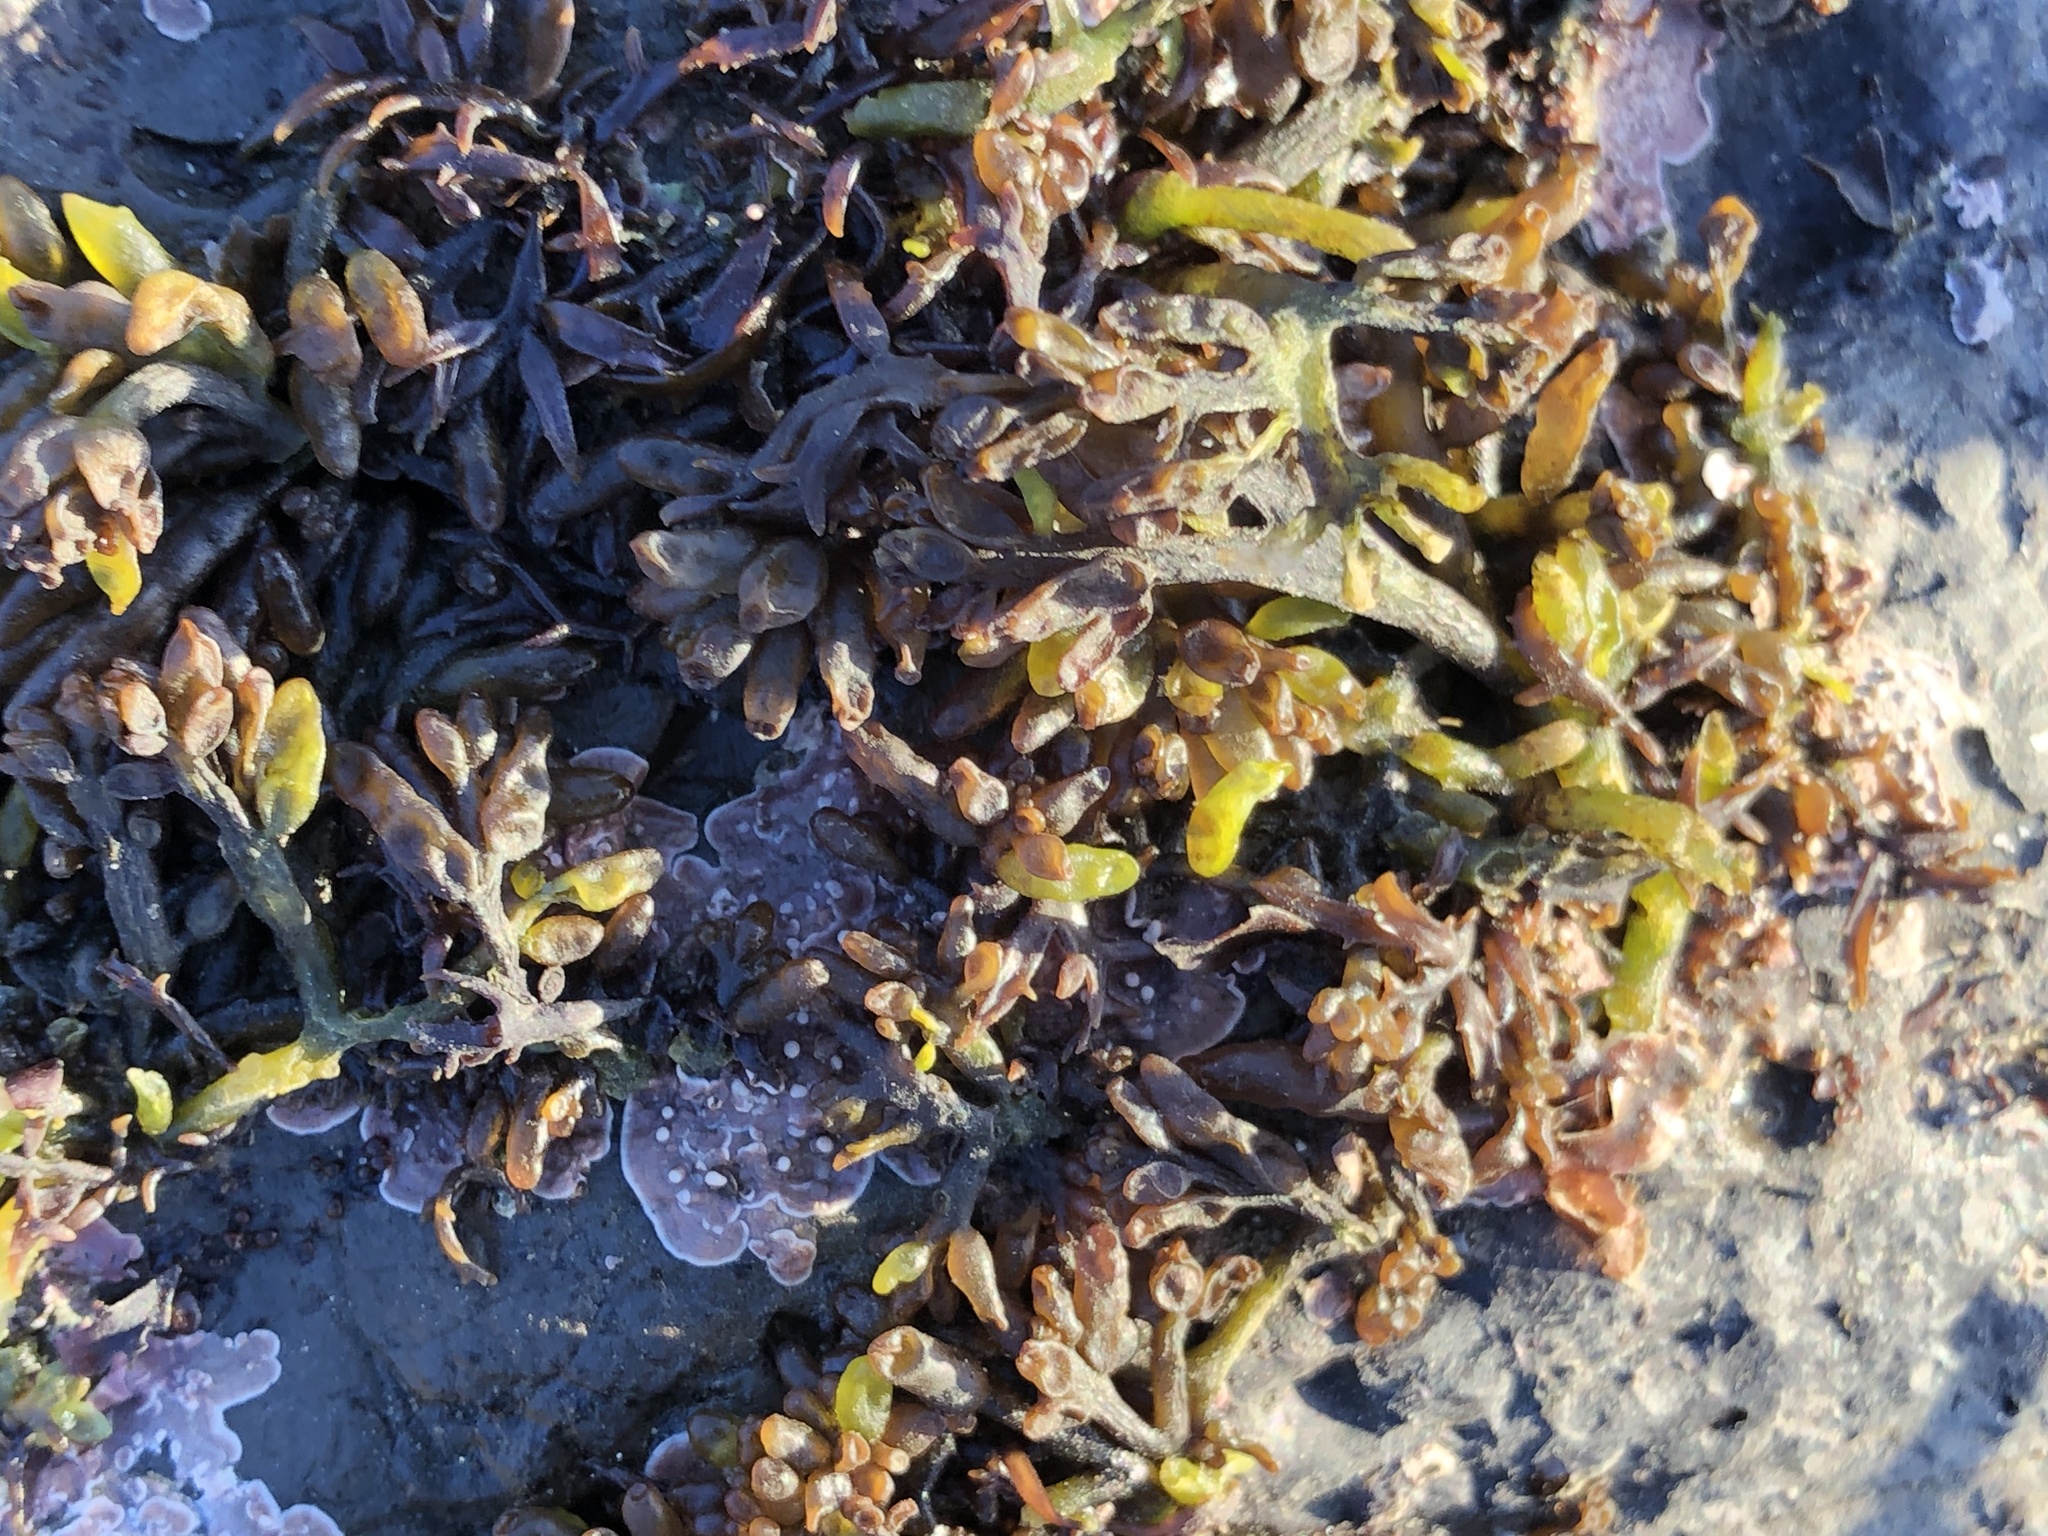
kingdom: Plantae
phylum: Rhodophyta
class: Florideophyceae
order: Rhodymeniales
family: Champiaceae
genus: Neogastroclonium
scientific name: Neogastroclonium subarticulatum
